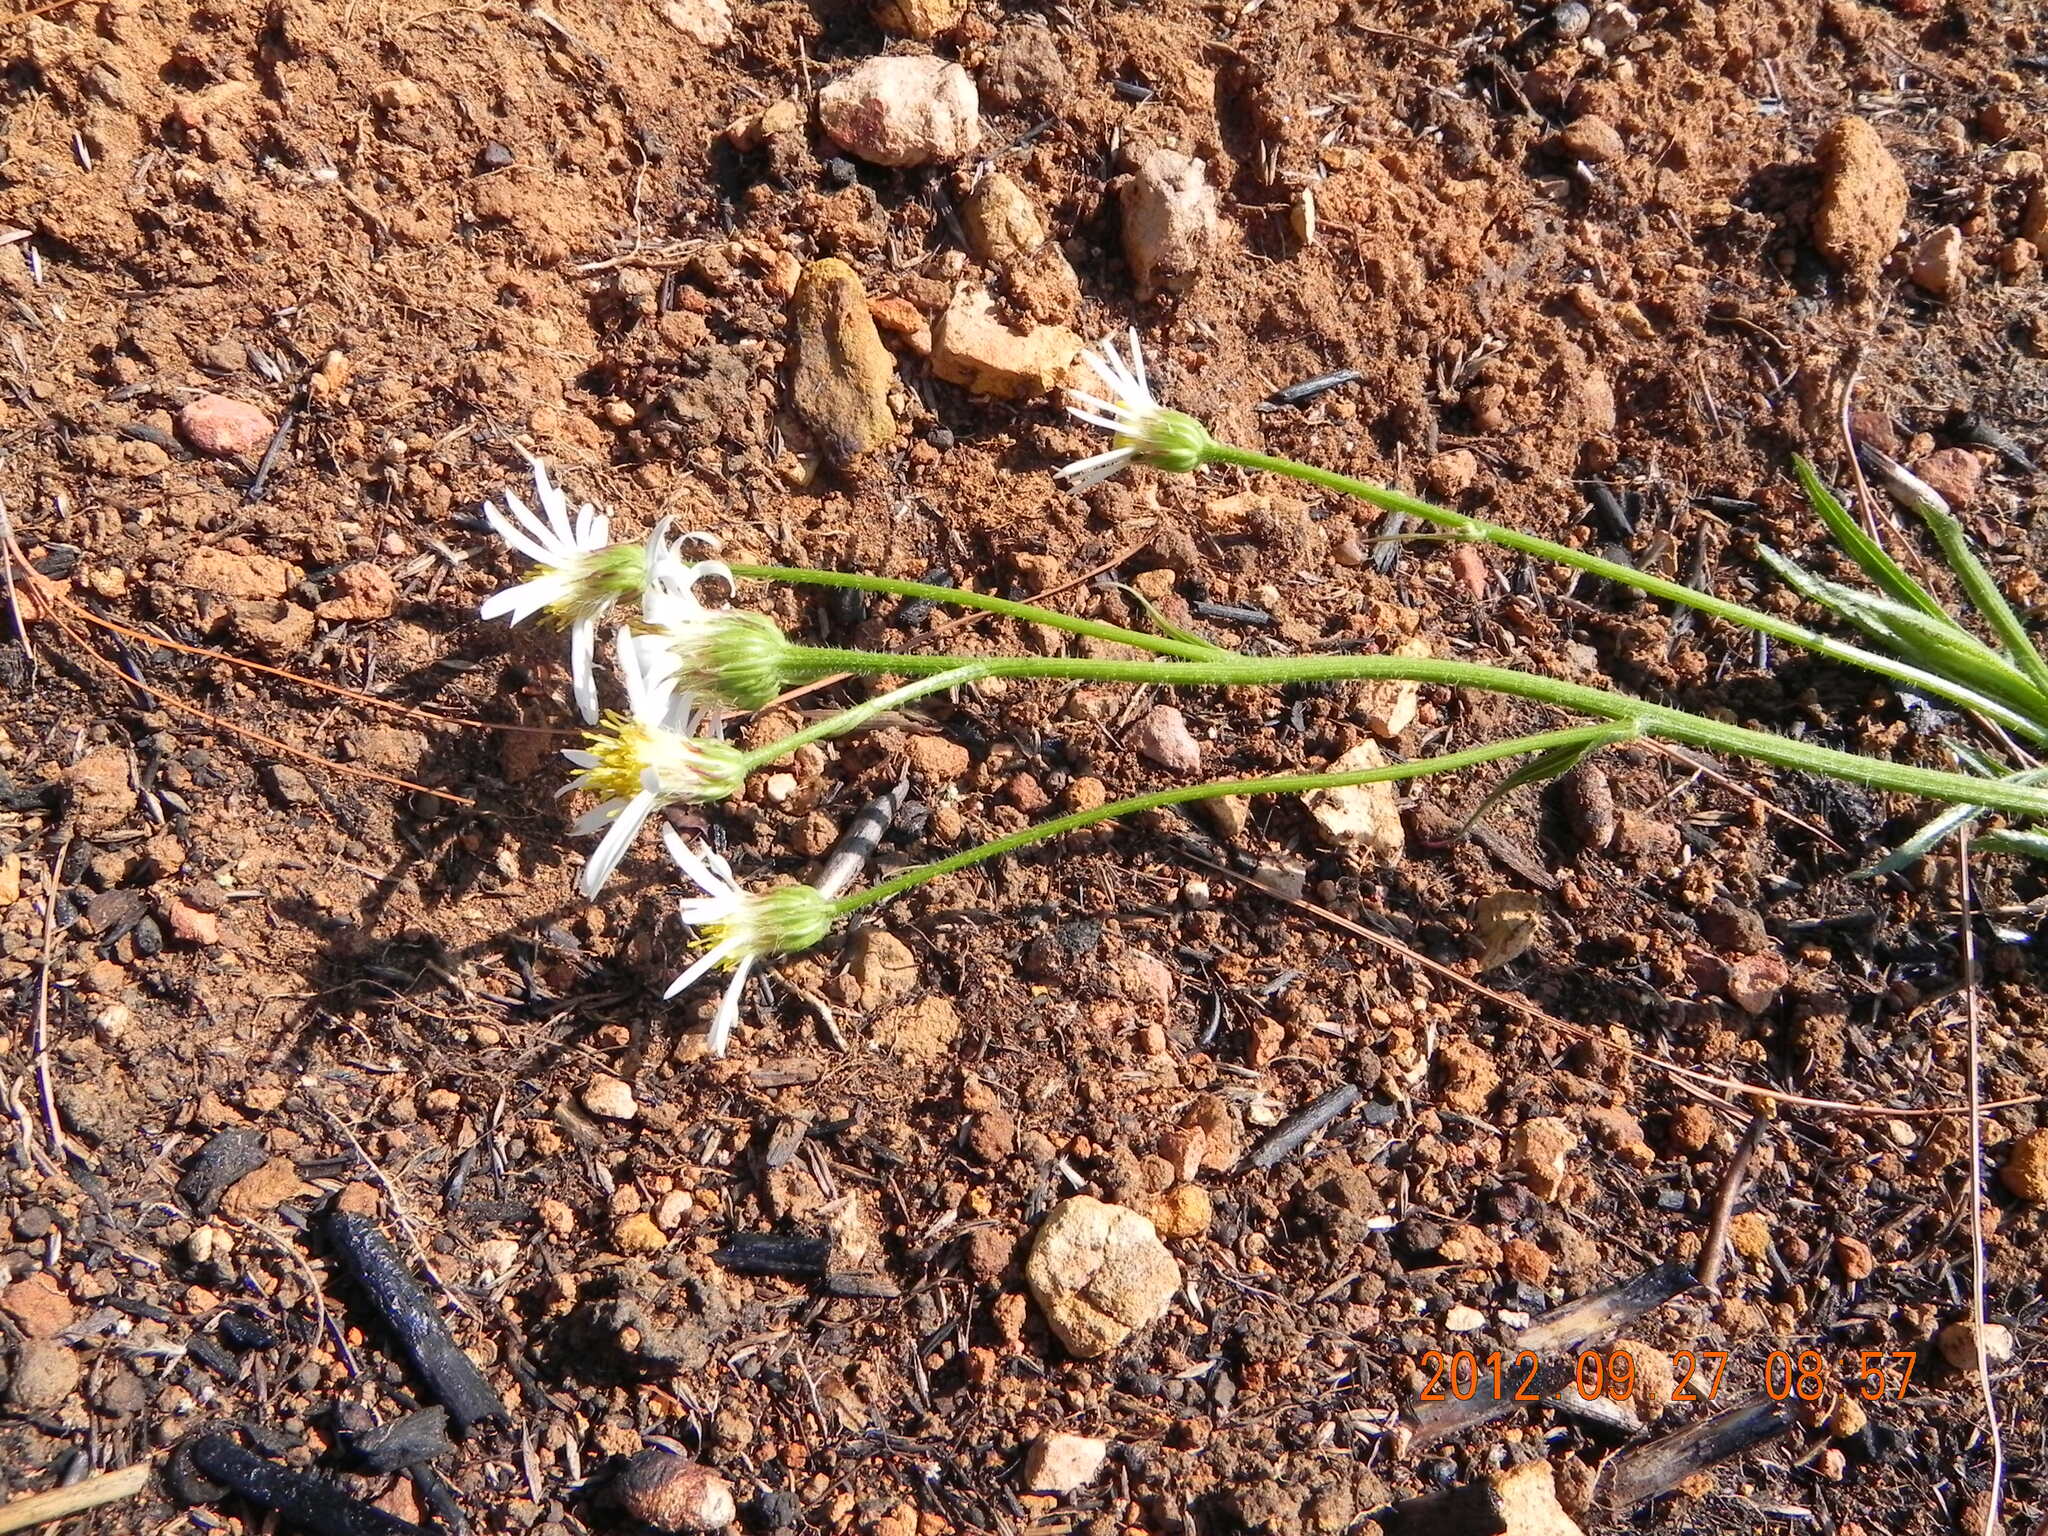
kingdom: Plantae
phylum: Tracheophyta
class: Magnoliopsida
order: Asterales
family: Asteraceae
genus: Afroaster
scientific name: Afroaster pleiocephalus
